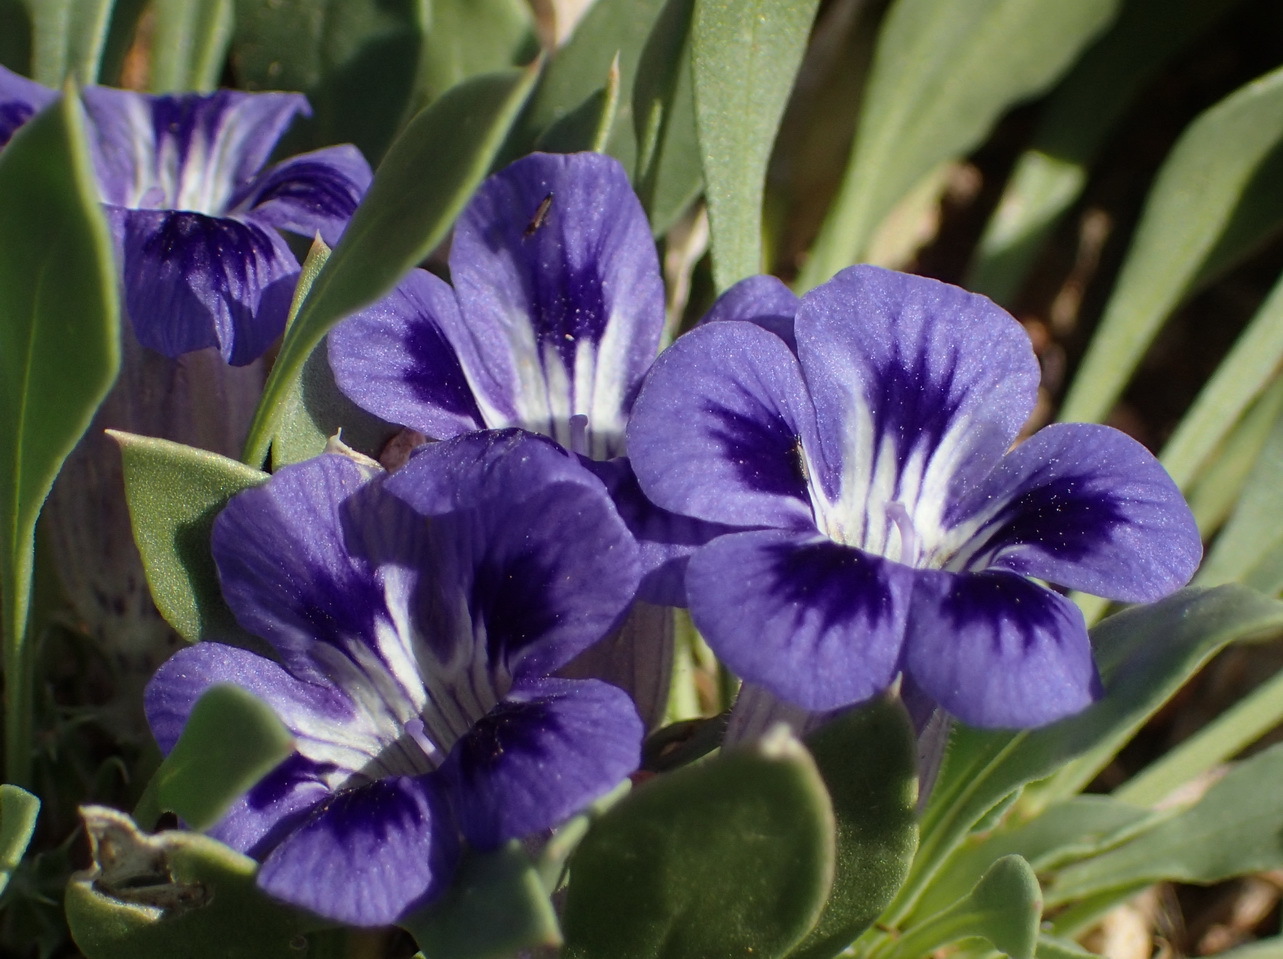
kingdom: Plantae
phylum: Tracheophyta
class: Magnoliopsida
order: Lamiales
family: Scrophulariaceae
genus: Aptosimum
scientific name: Aptosimum indivisum
